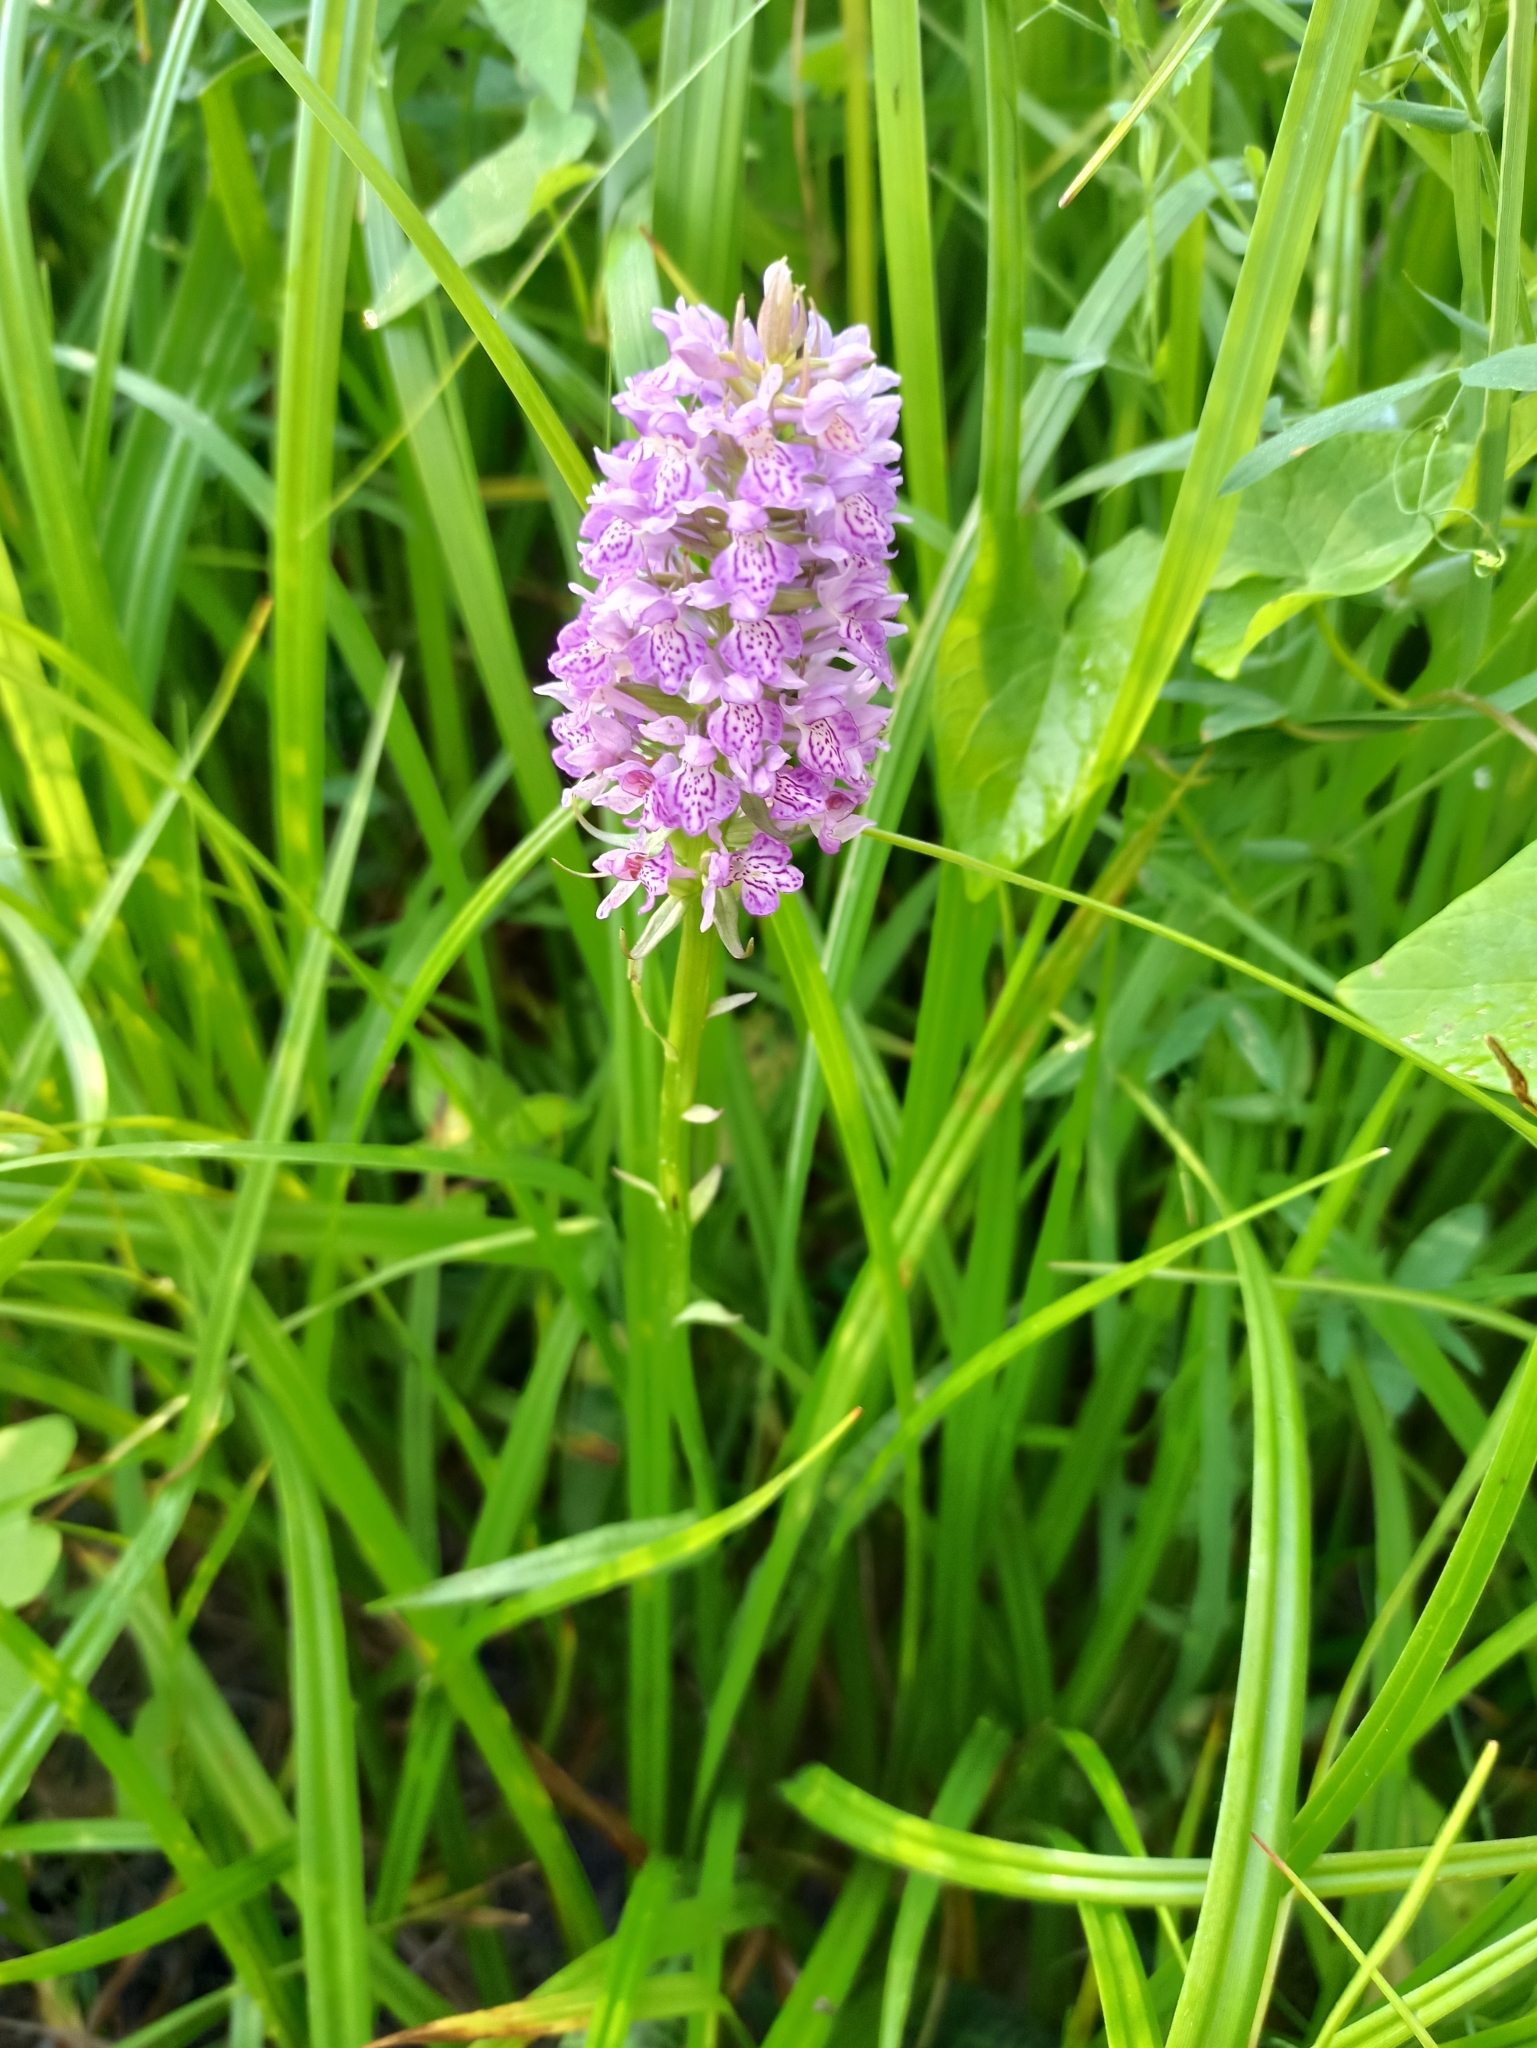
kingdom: Plantae
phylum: Tracheophyta
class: Liliopsida
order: Asparagales
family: Orchidaceae
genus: Dactylorhiza
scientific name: Dactylorhiza majalis
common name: Marsh orchid
